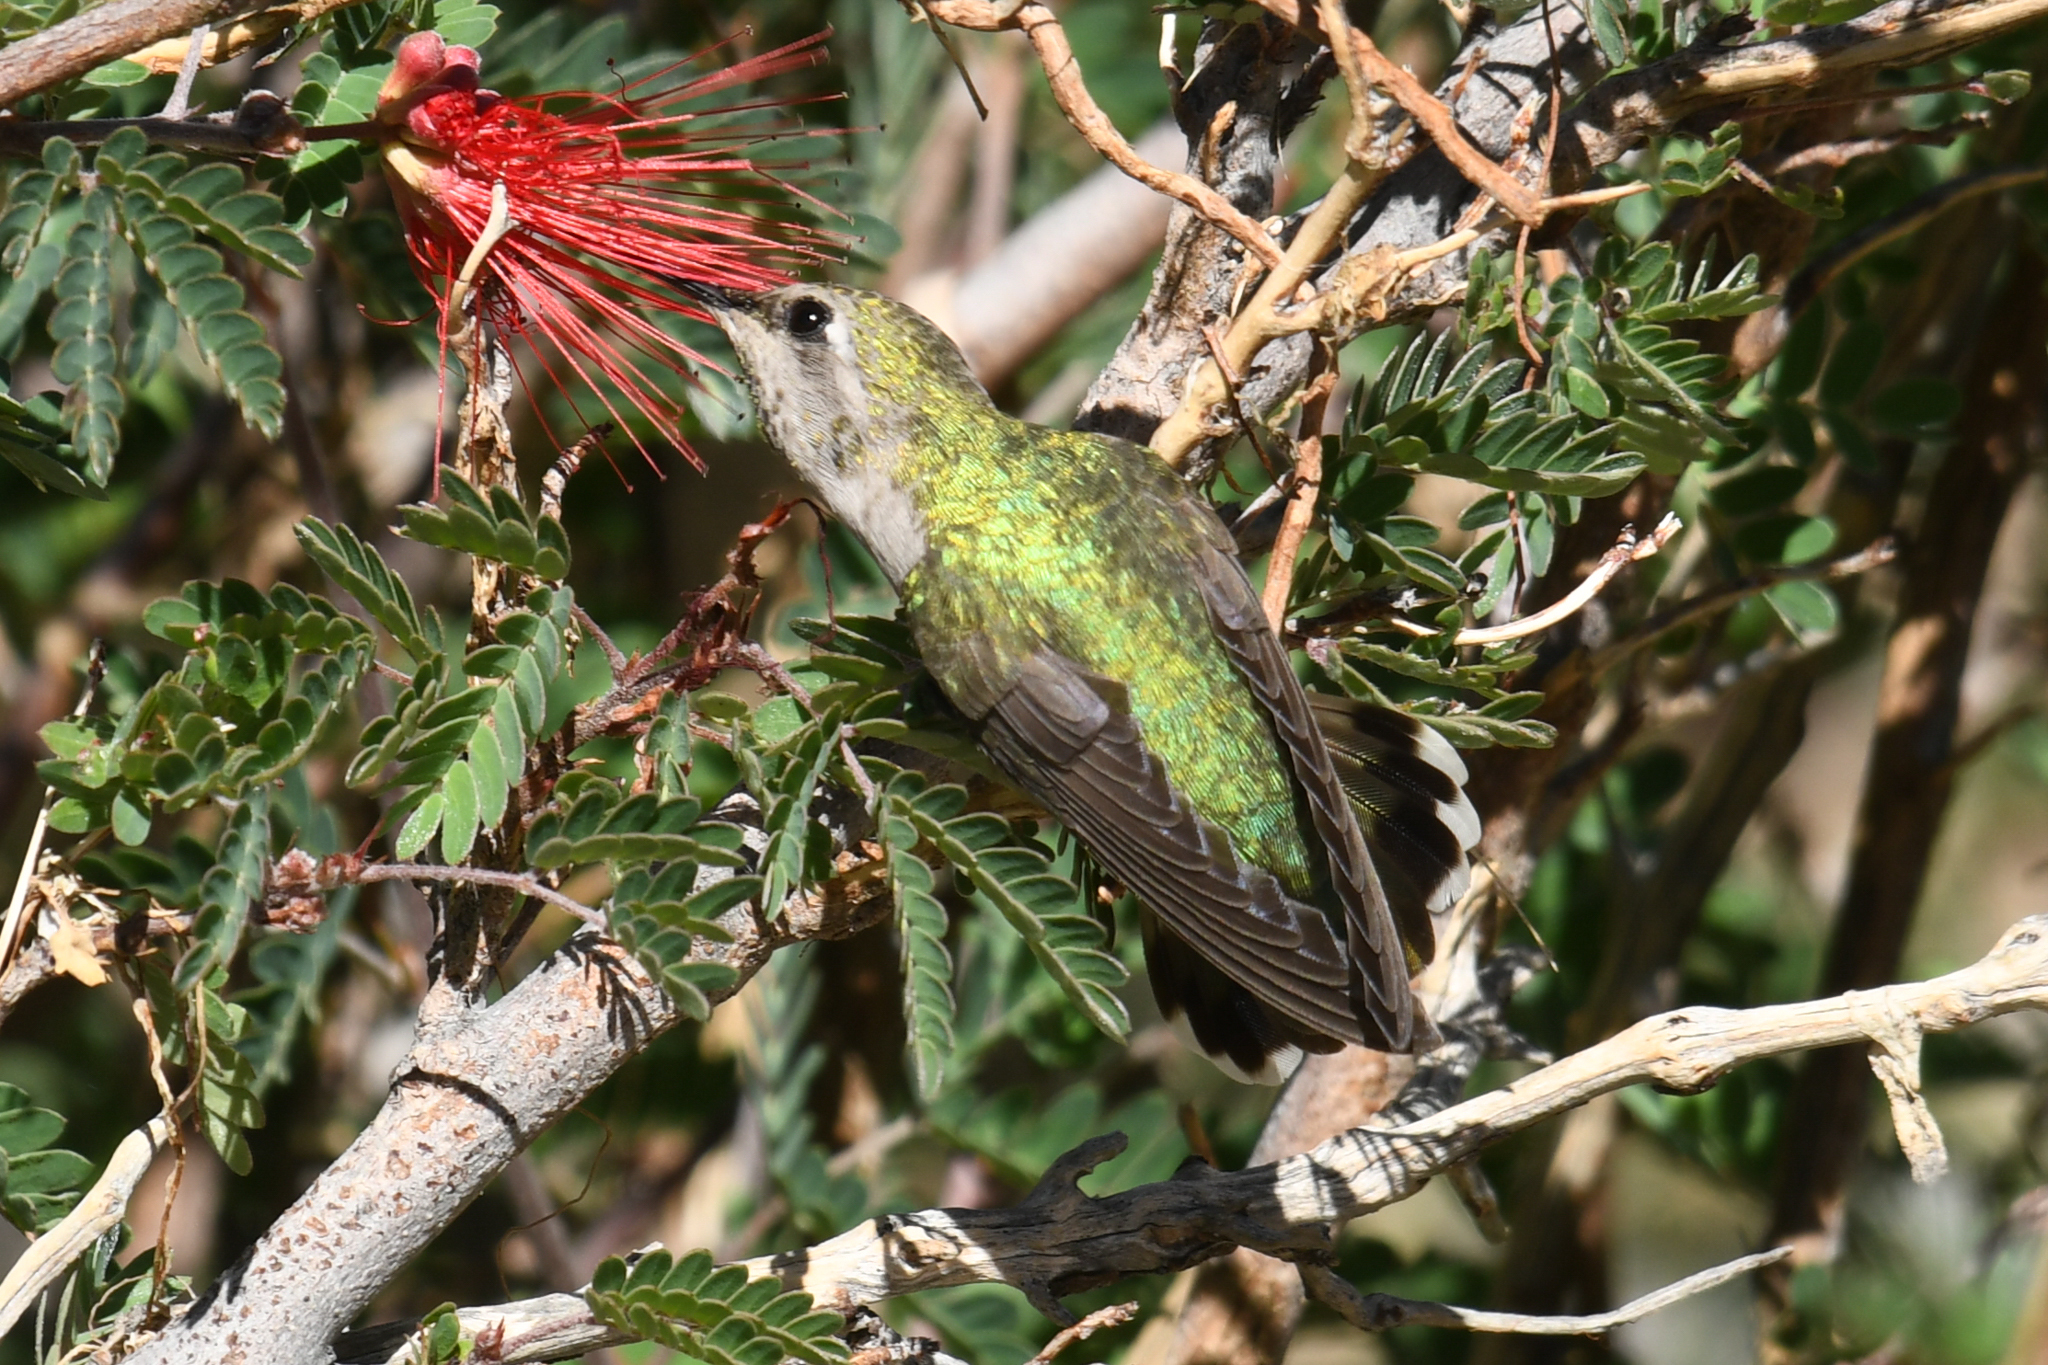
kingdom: Animalia
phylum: Chordata
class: Aves
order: Apodiformes
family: Trochilidae
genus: Calypte
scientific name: Calypte anna
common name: Anna's hummingbird
